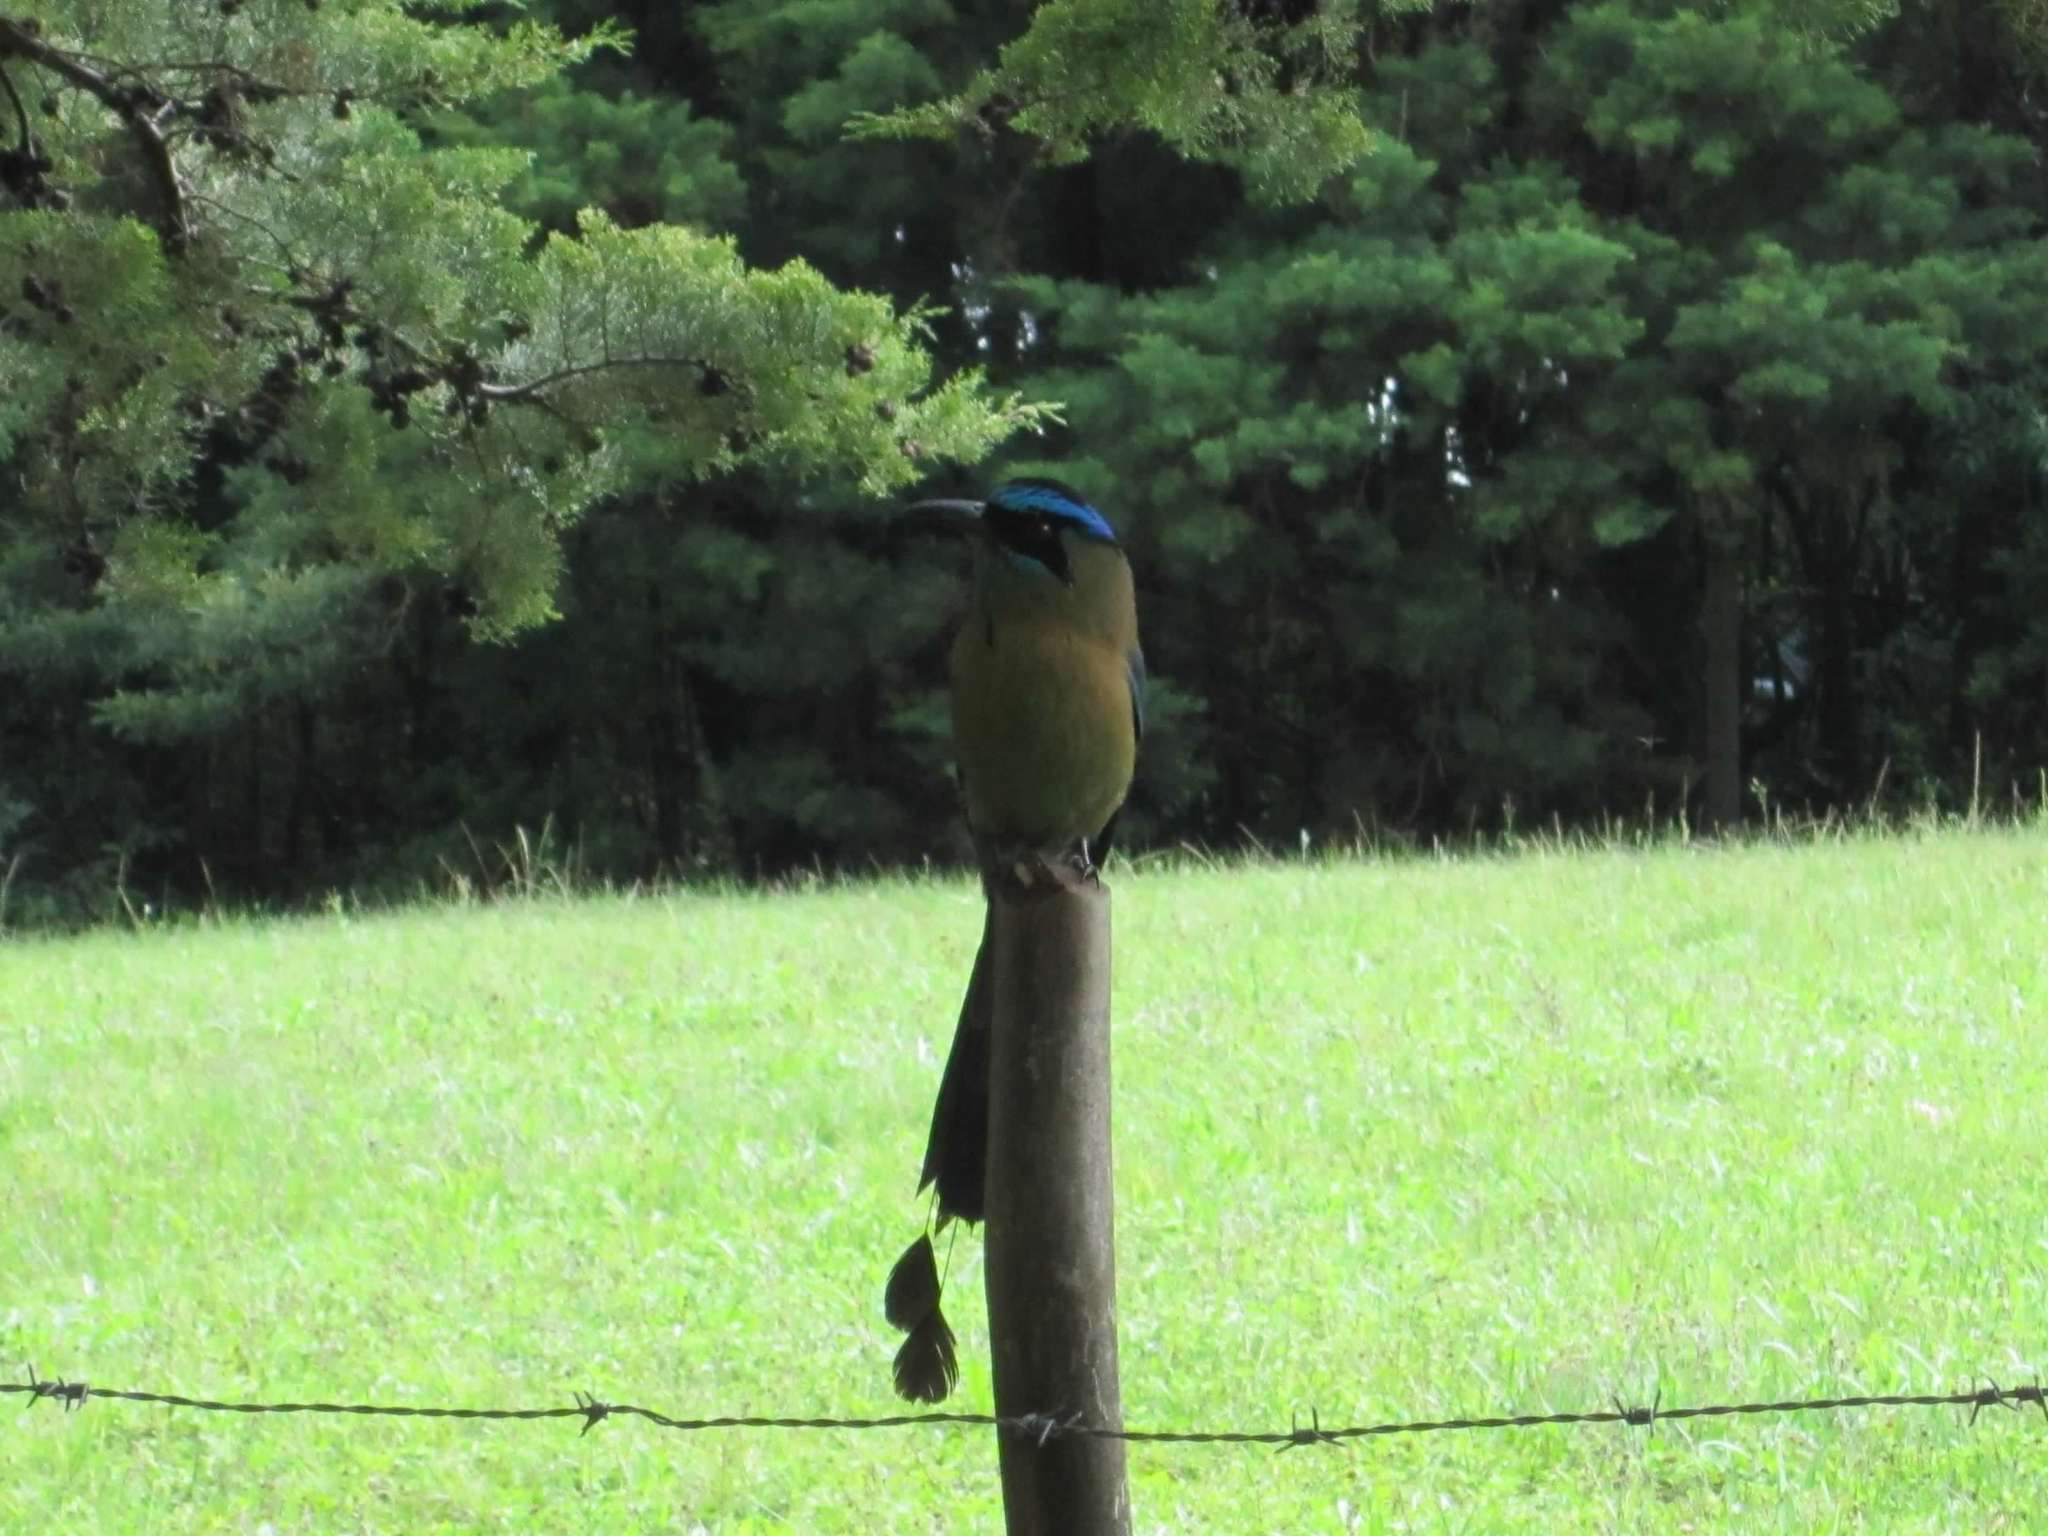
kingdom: Animalia
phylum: Chordata
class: Aves
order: Coraciiformes
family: Momotidae
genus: Momotus
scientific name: Momotus lessonii
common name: Lesson's motmot
